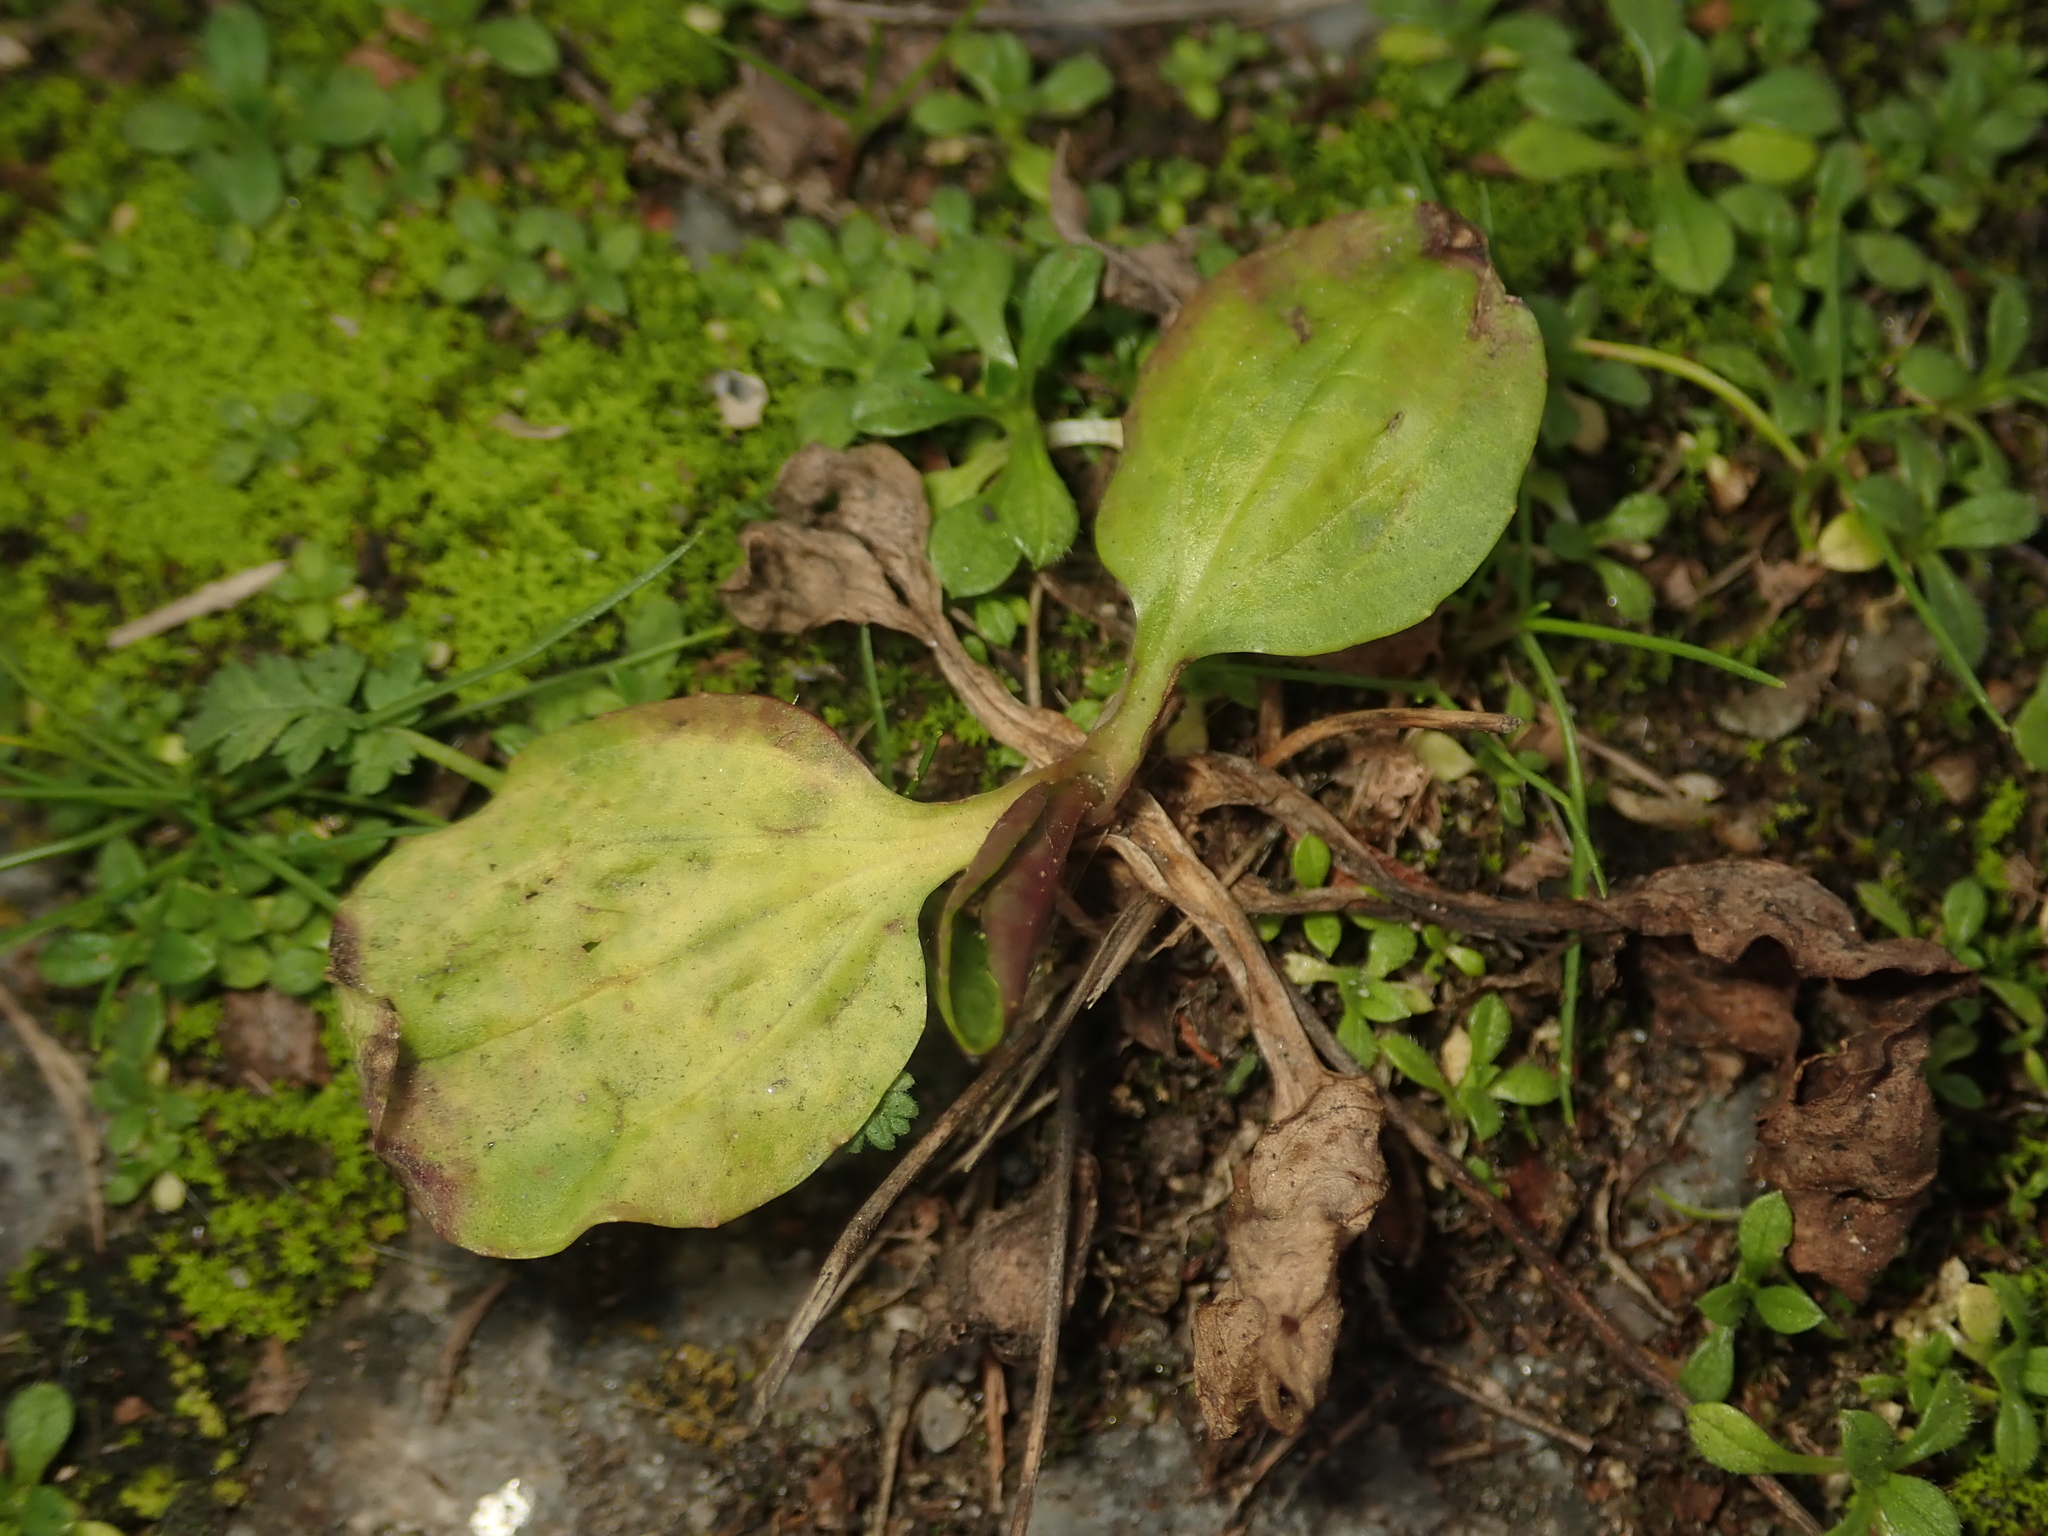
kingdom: Plantae
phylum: Tracheophyta
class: Magnoliopsida
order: Lamiales
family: Plantaginaceae
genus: Plantago
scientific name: Plantago major
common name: Common plantain
